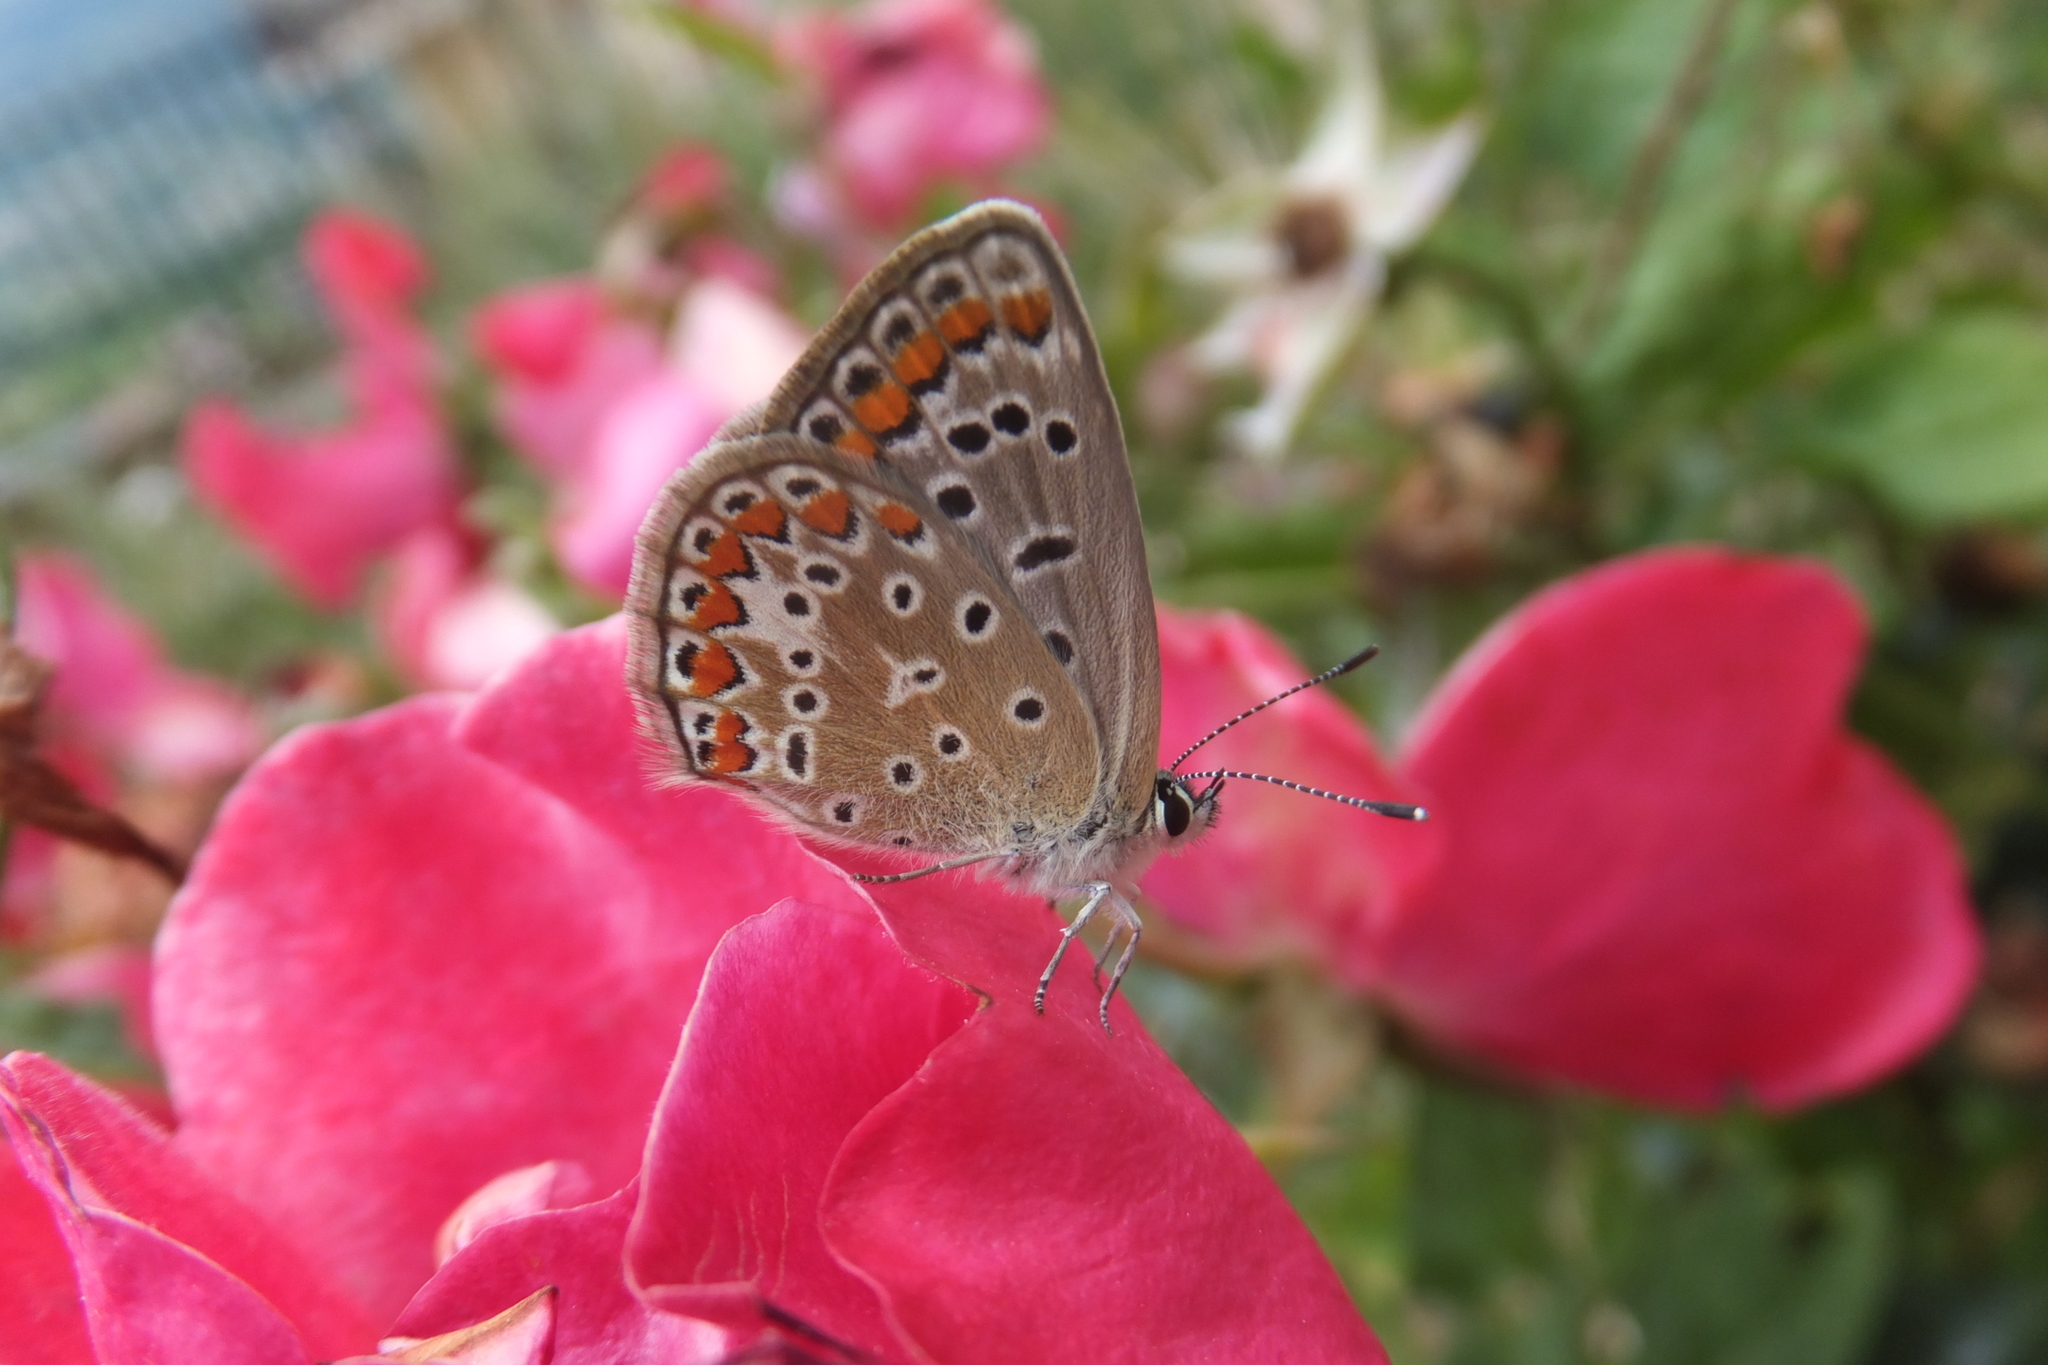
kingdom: Animalia
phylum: Arthropoda
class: Insecta
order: Lepidoptera
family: Lycaenidae
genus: Polyommatus
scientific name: Polyommatus icarus
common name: Common blue
